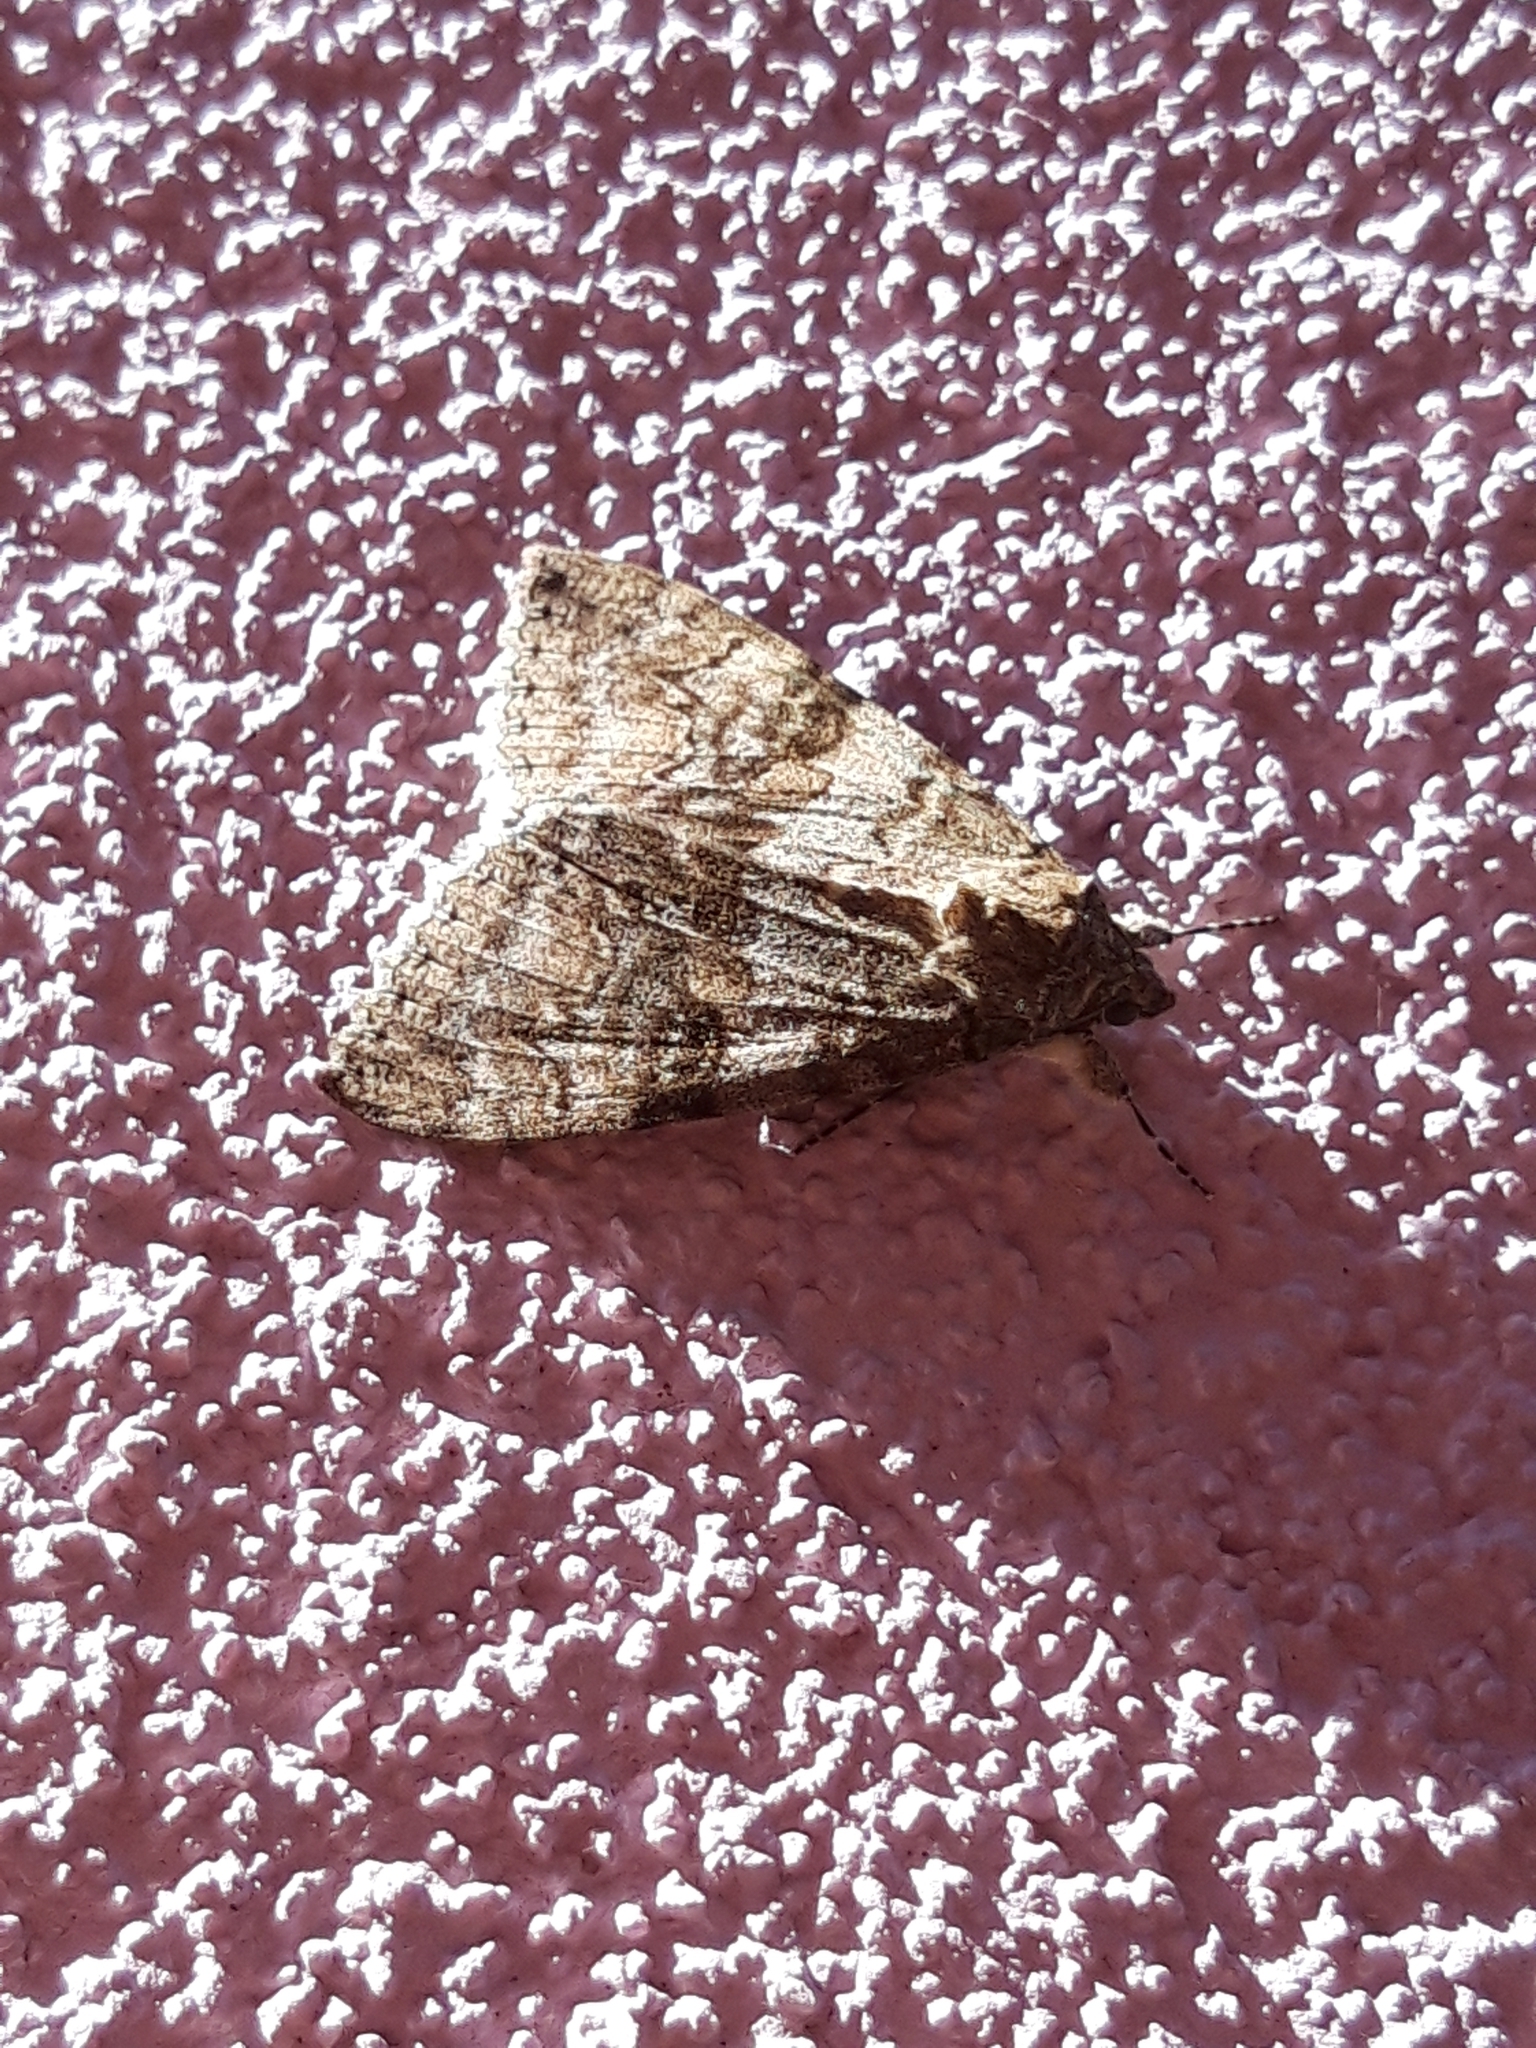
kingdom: Animalia
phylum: Arthropoda
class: Insecta
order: Lepidoptera
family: Erebidae
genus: Catocala
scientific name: Catocala nupta
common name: Red underwing
